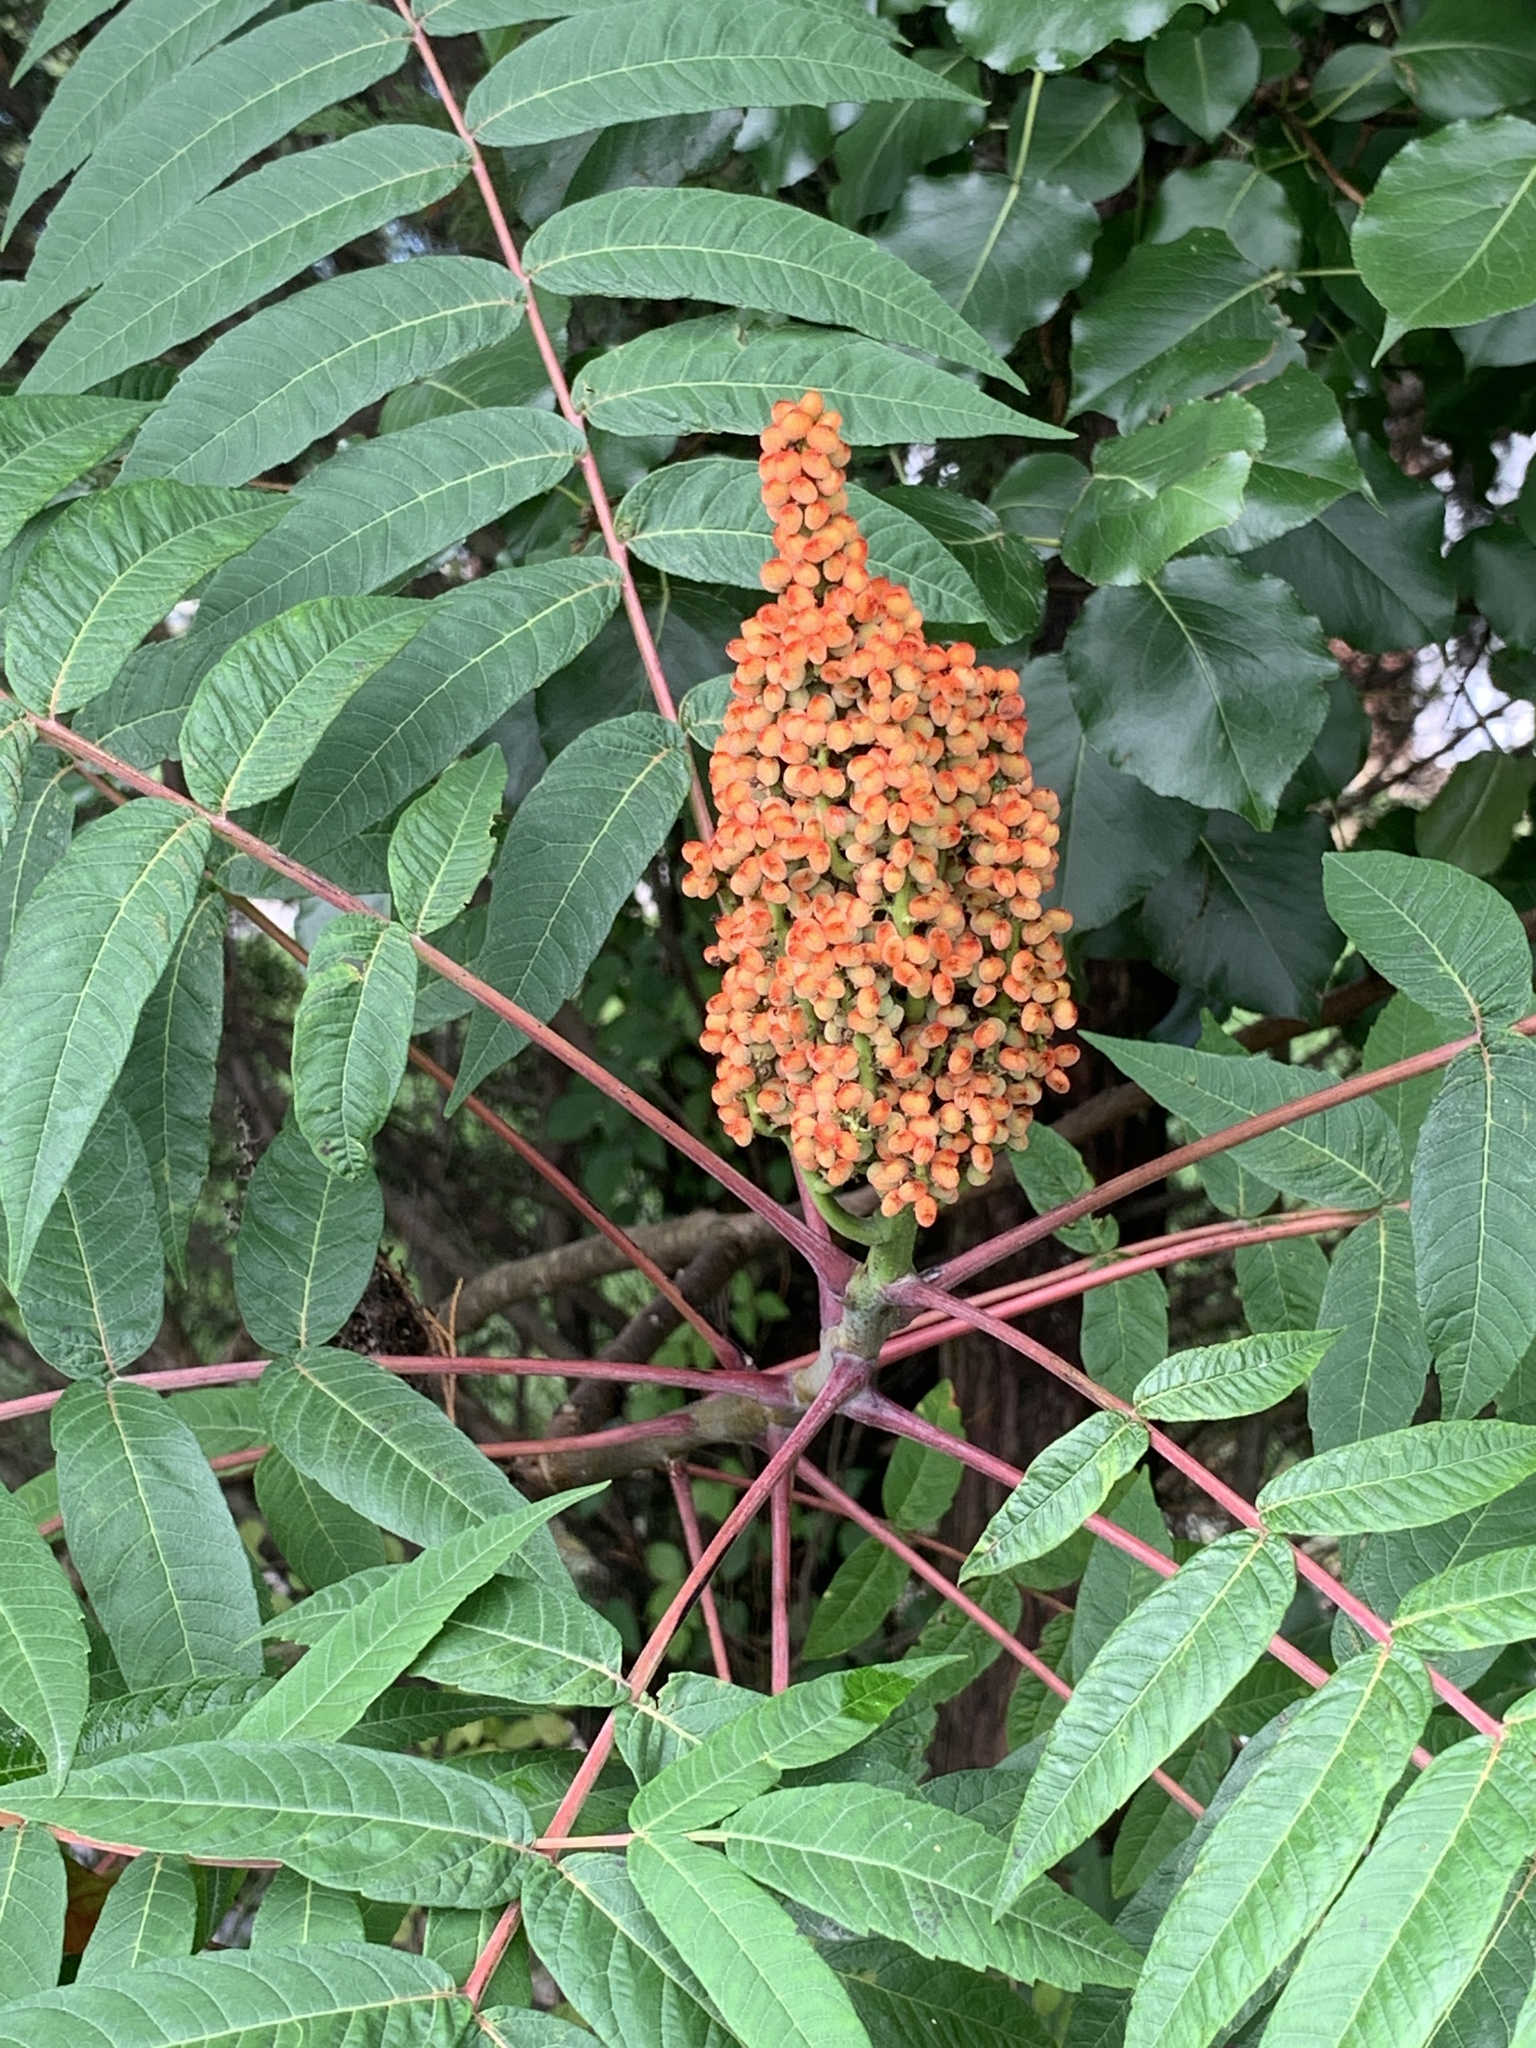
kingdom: Plantae
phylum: Tracheophyta
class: Magnoliopsida
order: Sapindales
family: Anacardiaceae
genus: Rhus
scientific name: Rhus glabra
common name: Scarlet sumac
